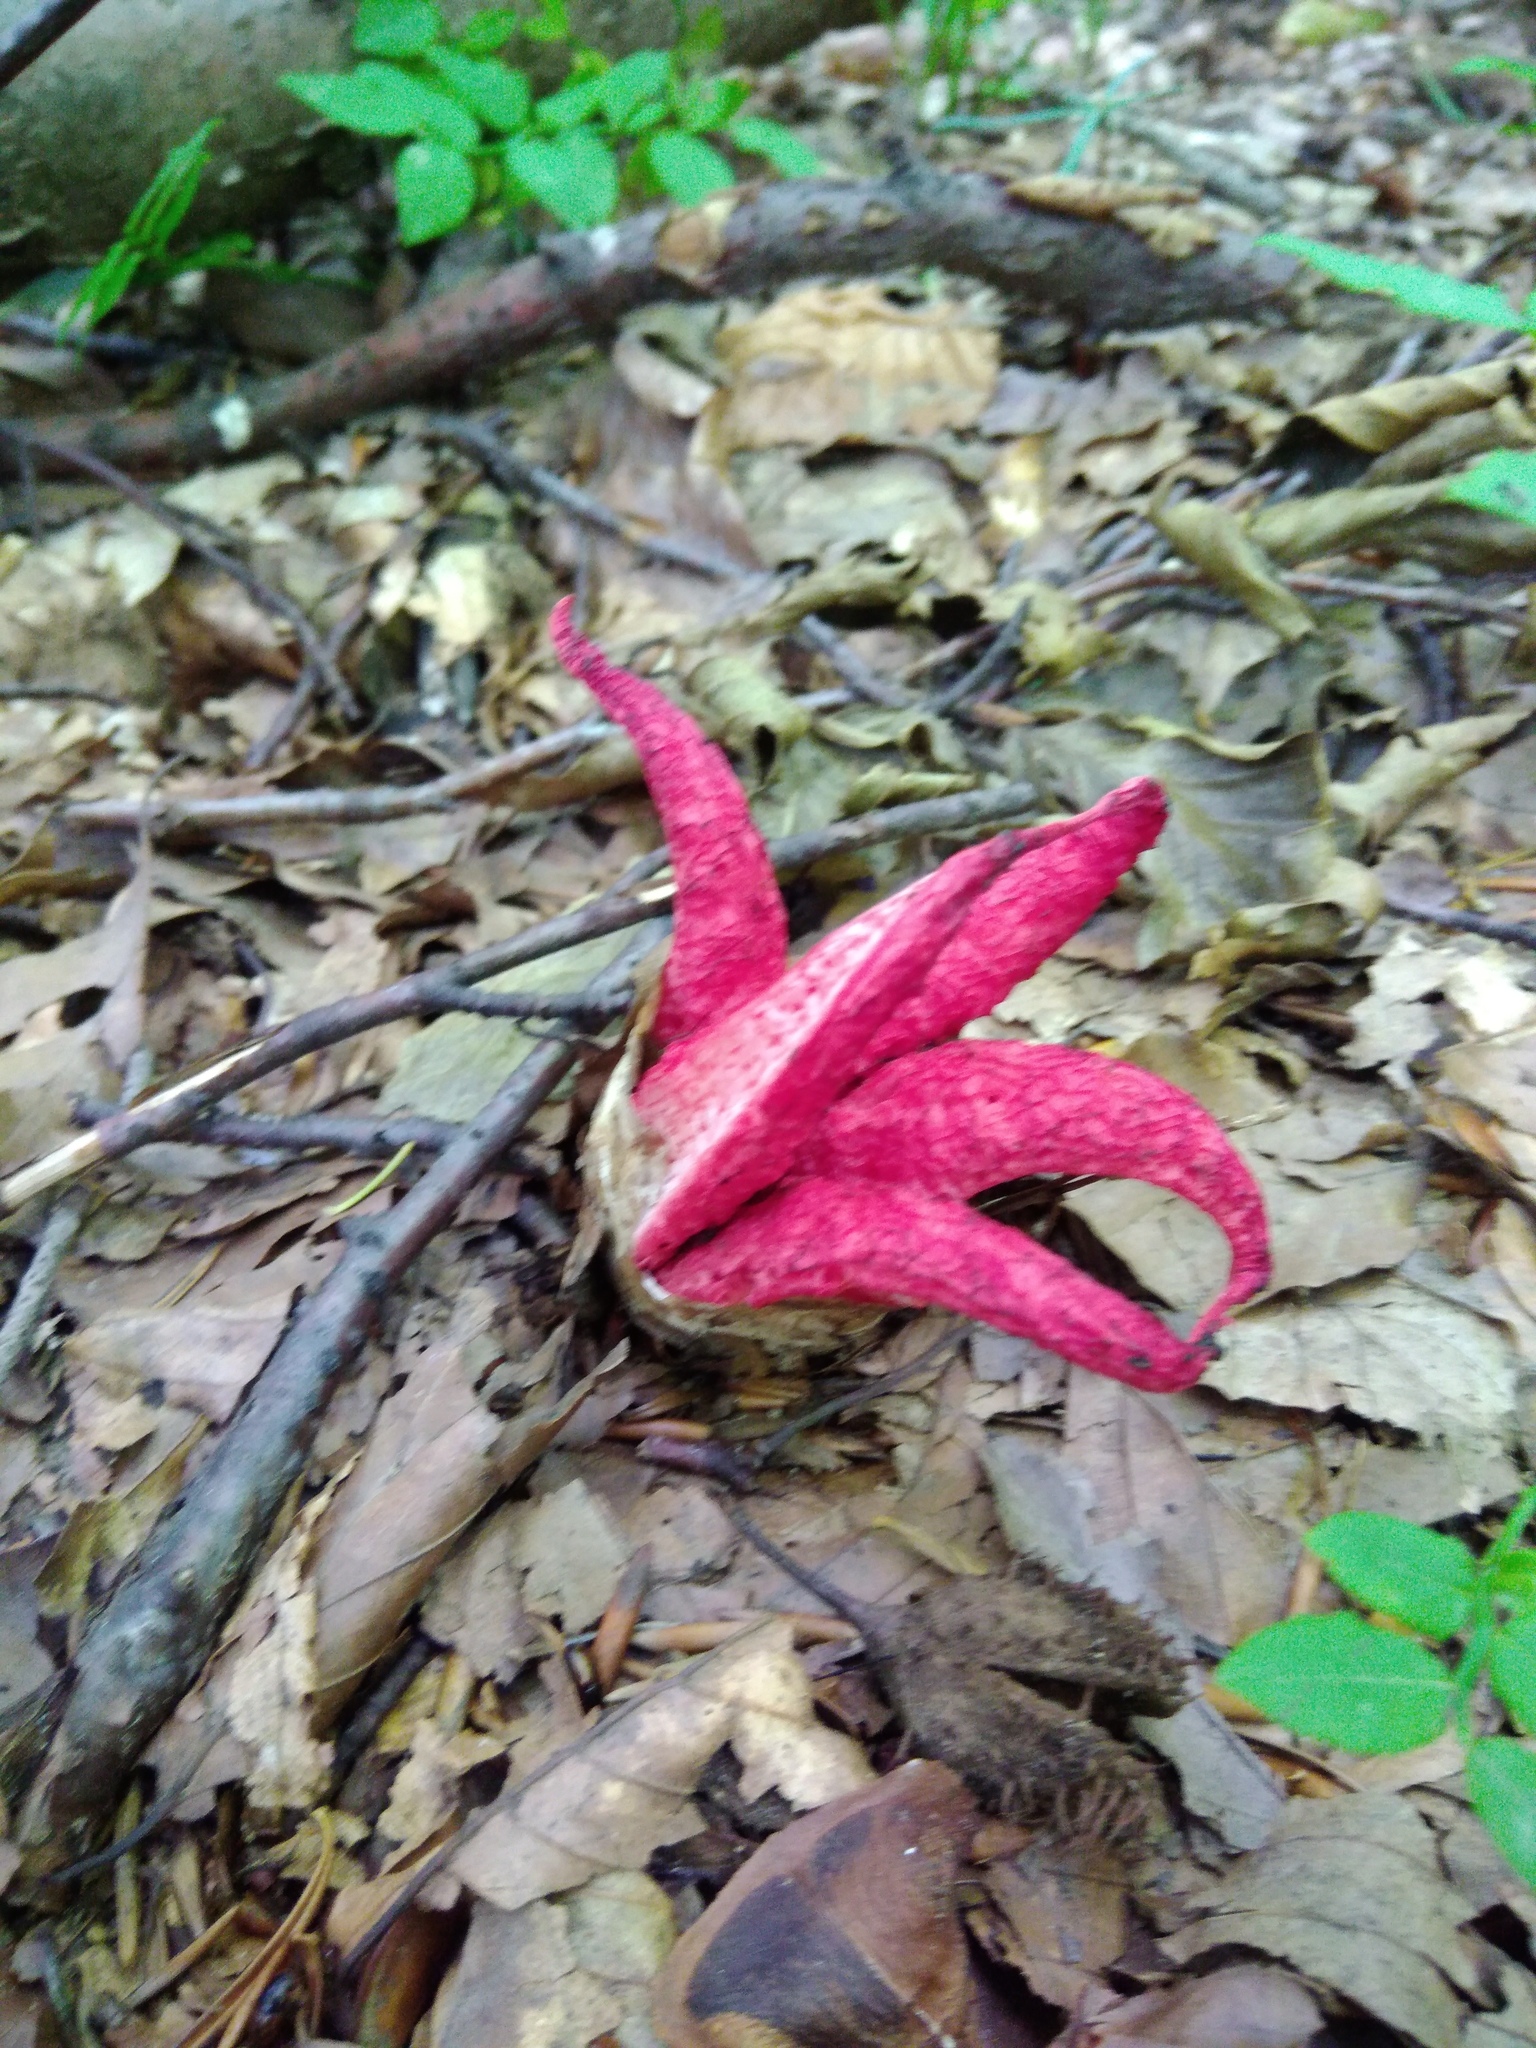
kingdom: Fungi
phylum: Basidiomycota
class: Agaricomycetes
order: Phallales
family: Phallaceae
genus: Clathrus
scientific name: Clathrus archeri
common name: Devil's fingers
